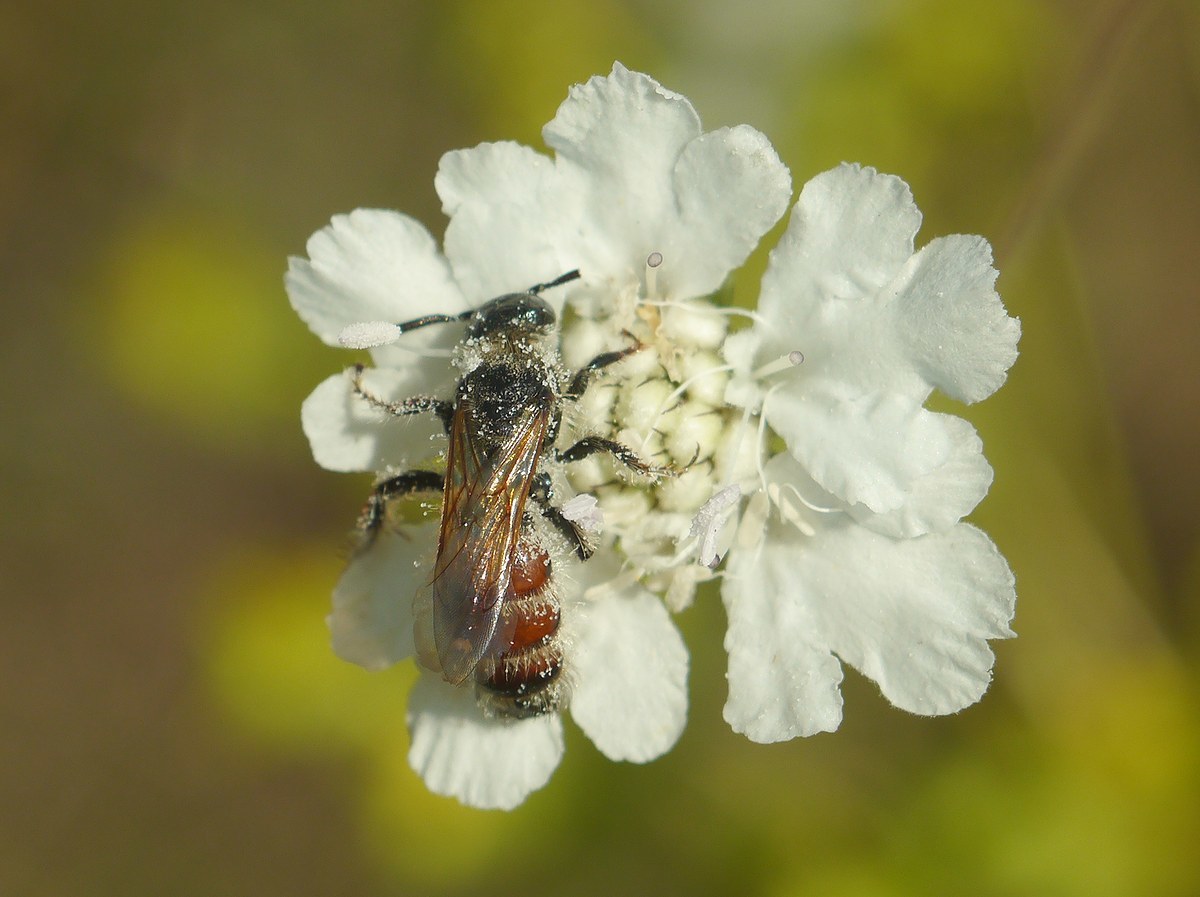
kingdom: Animalia
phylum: Arthropoda
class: Insecta
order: Hymenoptera
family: Scoliidae
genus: Colpa
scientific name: Colpa quinquecincta
